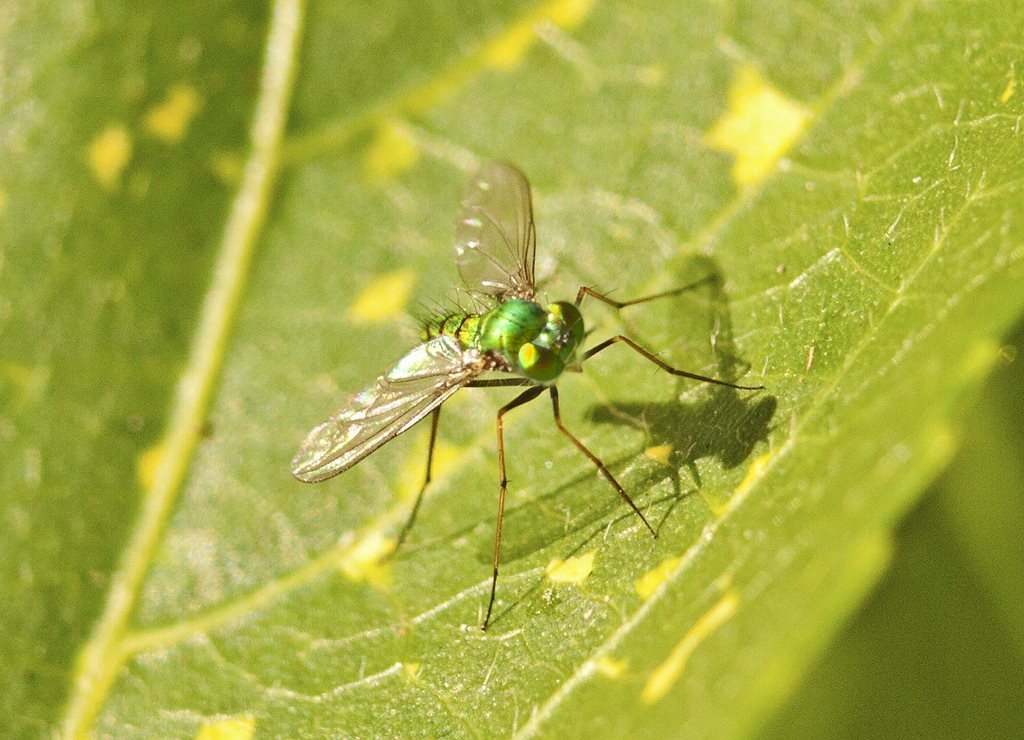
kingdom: Animalia
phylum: Arthropoda
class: Insecta
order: Diptera
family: Dolichopodidae
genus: Chrysosoma
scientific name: Chrysosoma pseudocallosum
